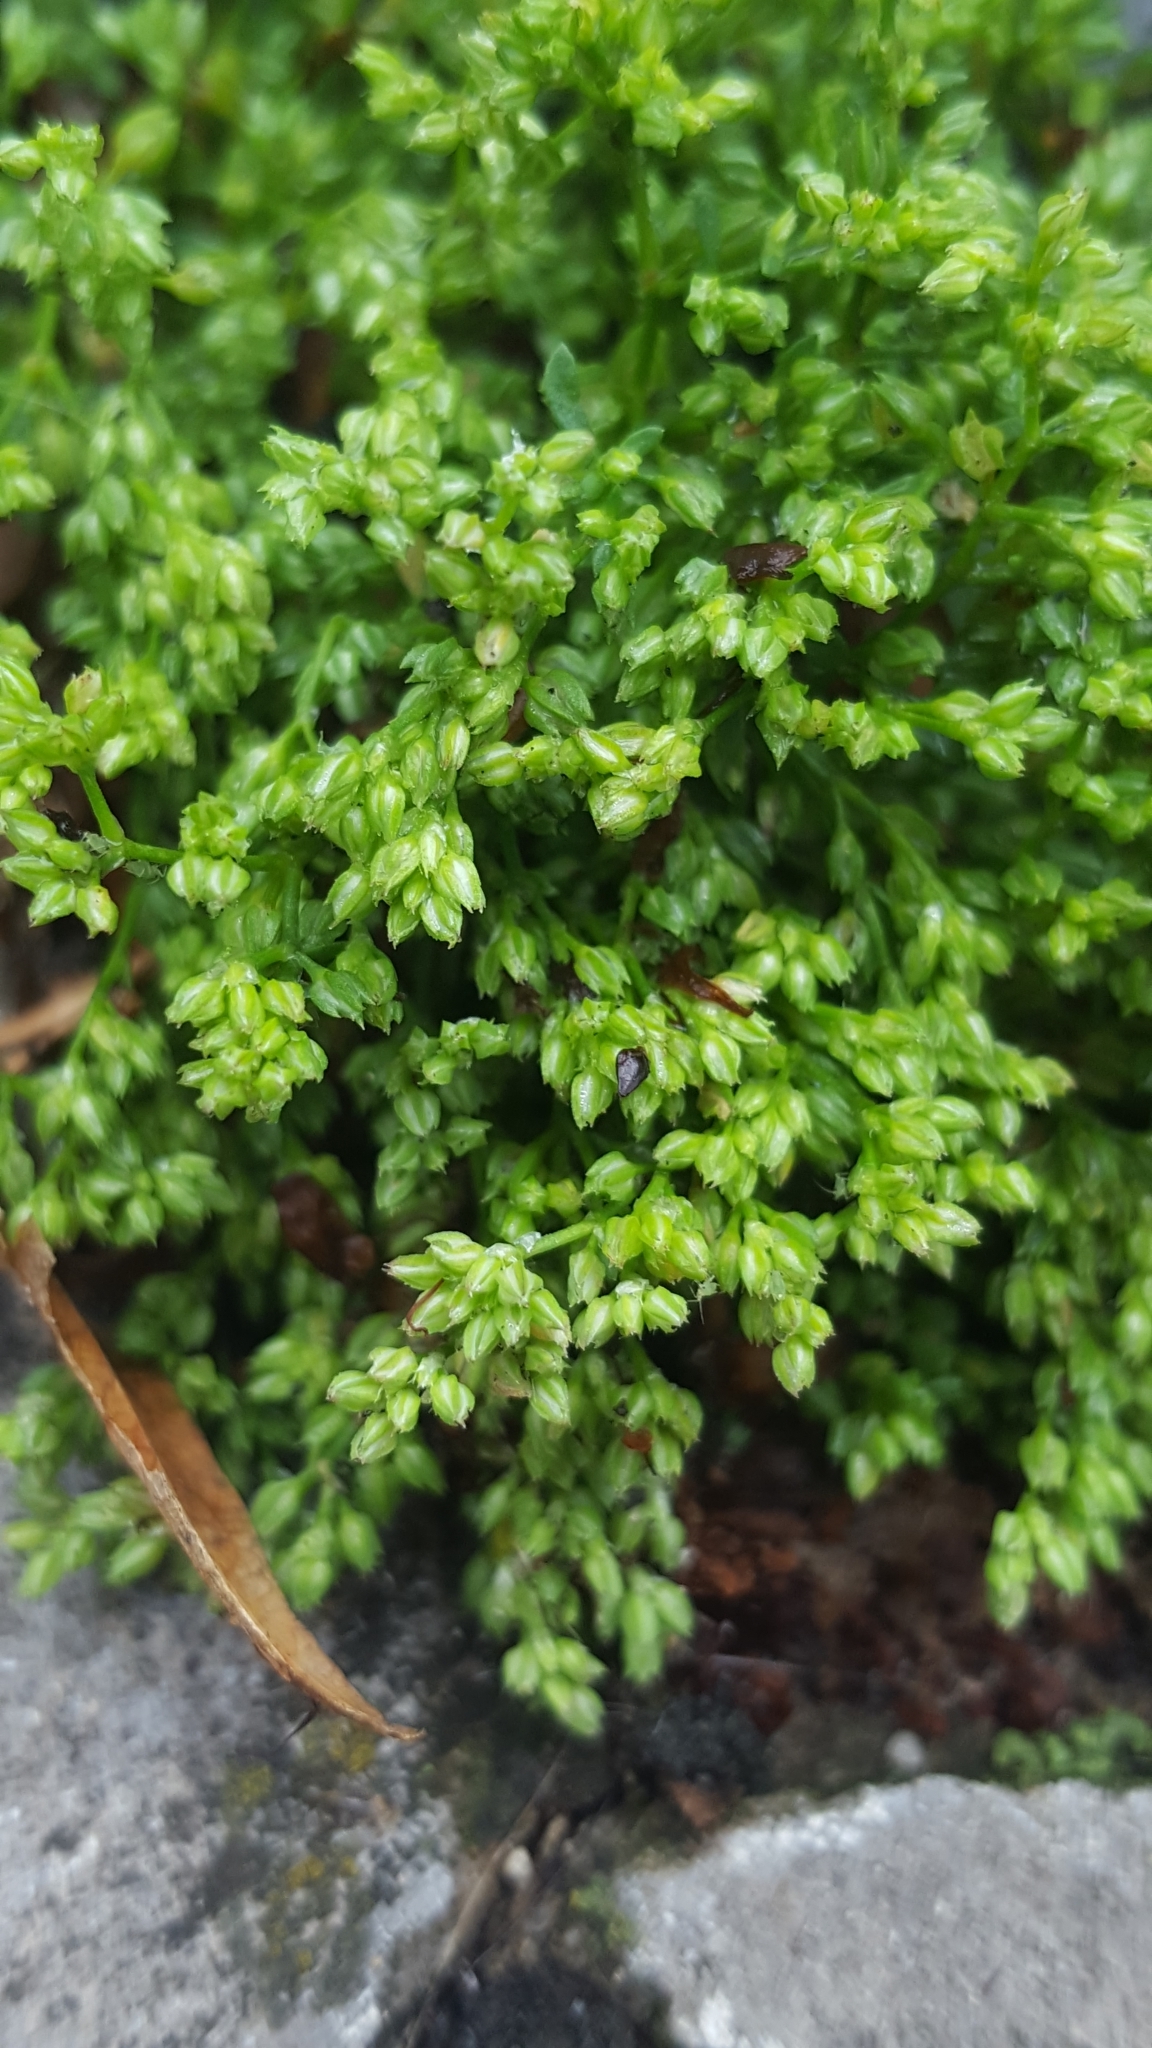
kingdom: Plantae
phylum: Tracheophyta
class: Magnoliopsida
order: Caryophyllales
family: Caryophyllaceae
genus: Polycarpon
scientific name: Polycarpon tetraphyllum
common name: Four-leaved all-seed
